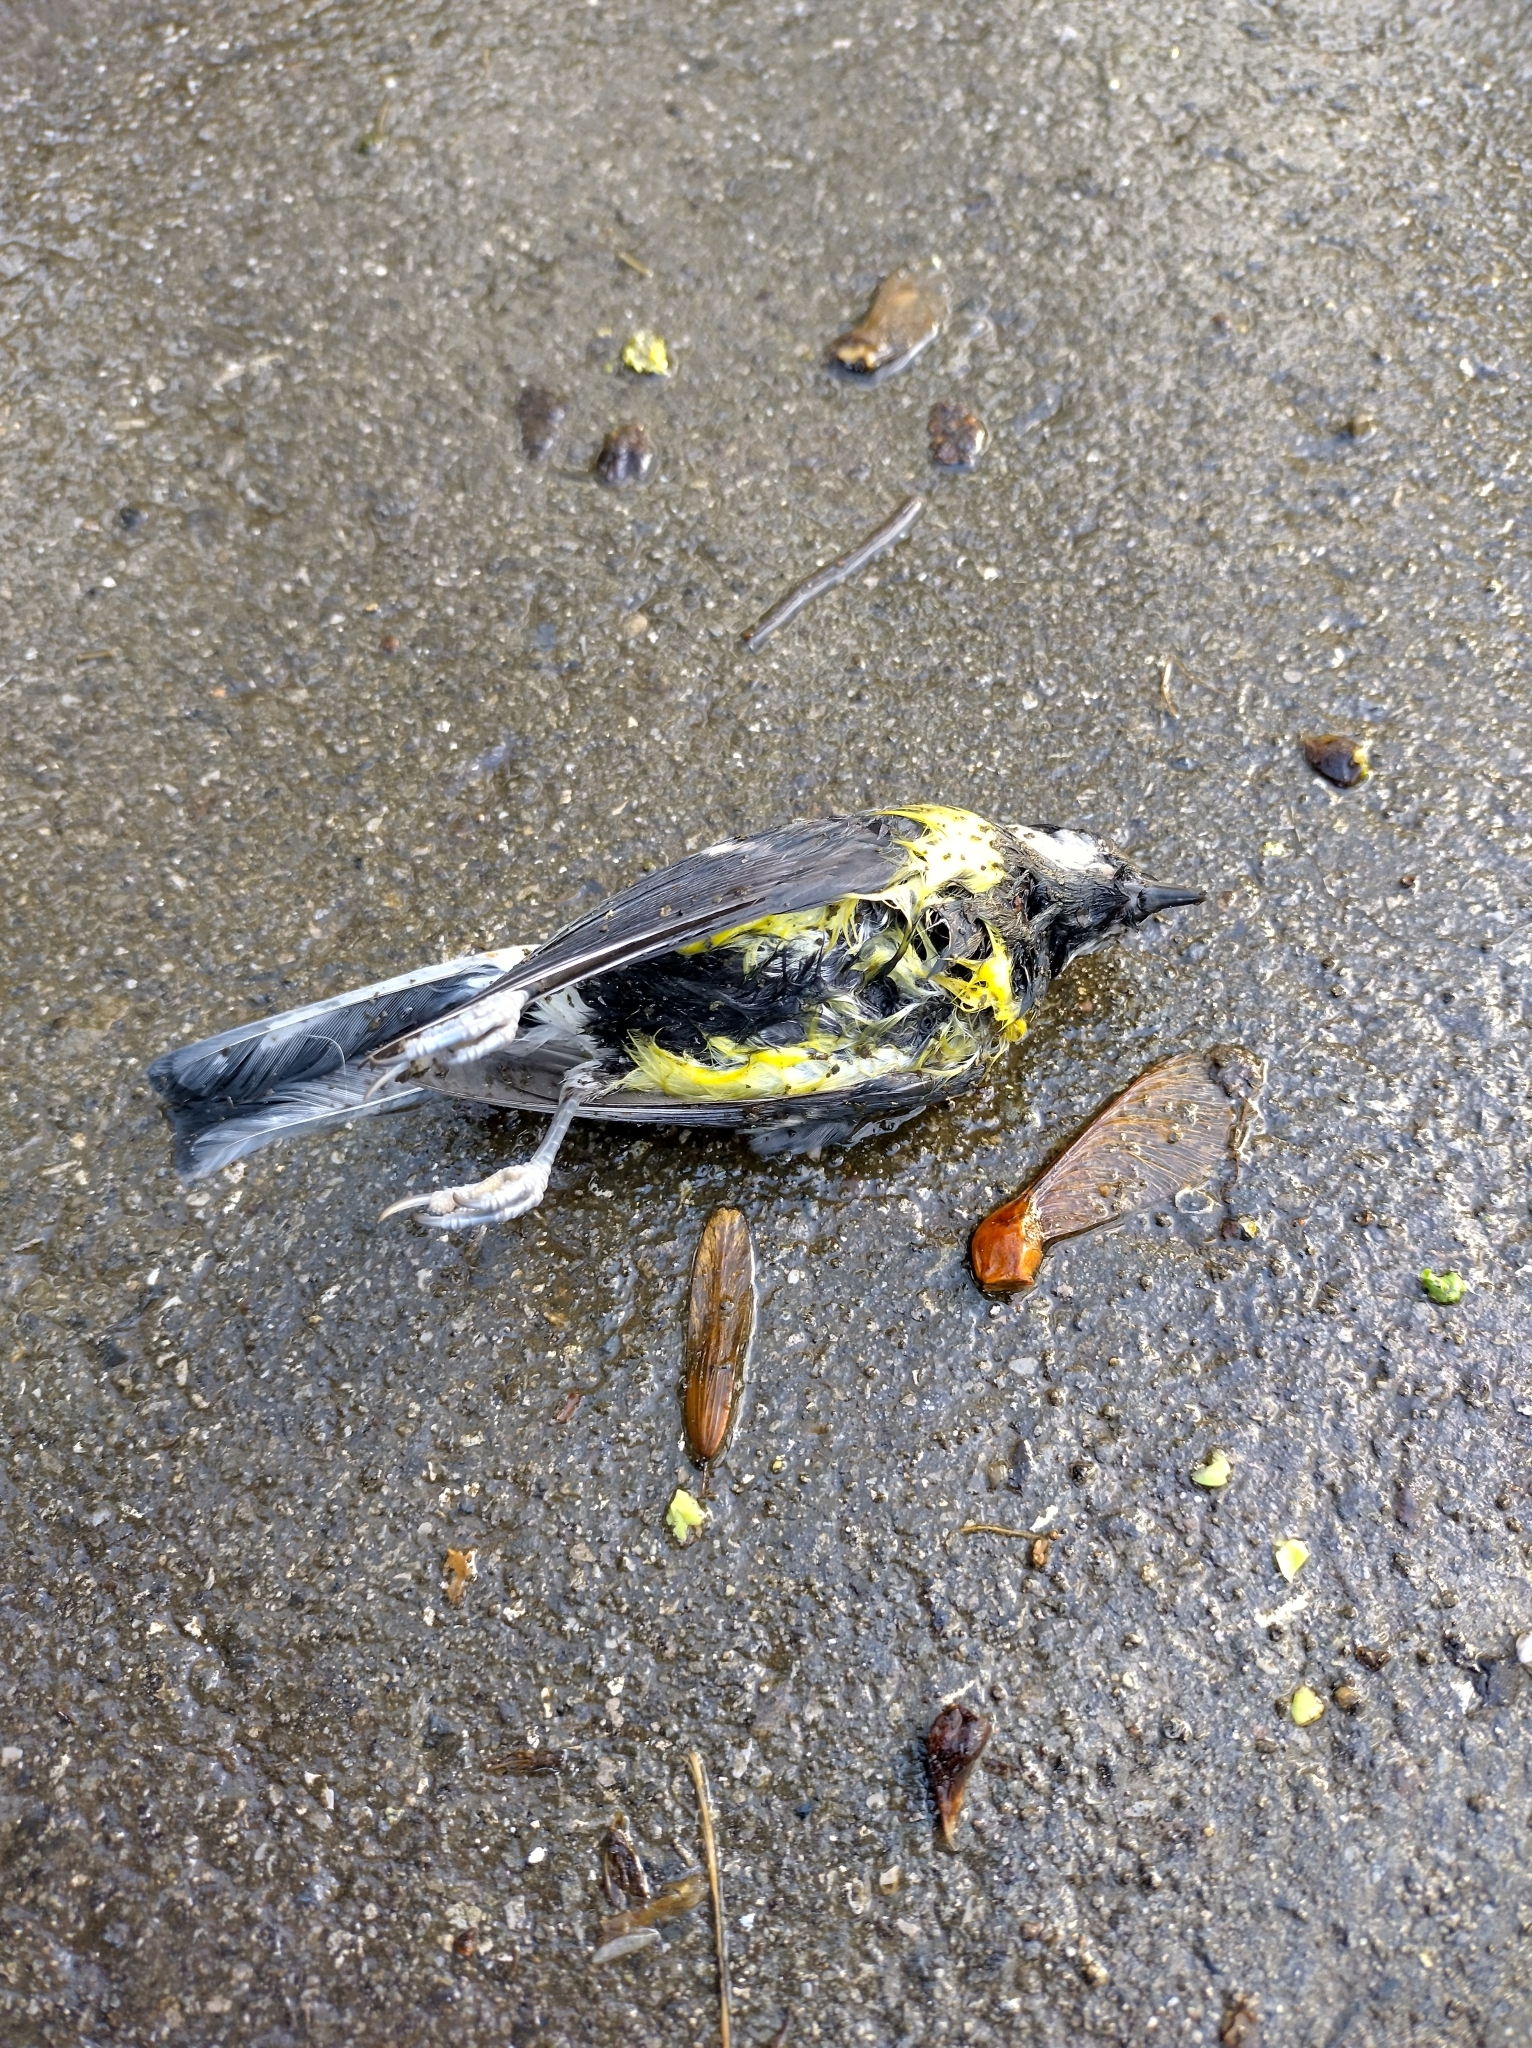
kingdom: Animalia
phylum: Chordata
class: Aves
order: Passeriformes
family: Paridae
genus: Parus
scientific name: Parus major
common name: Great tit
